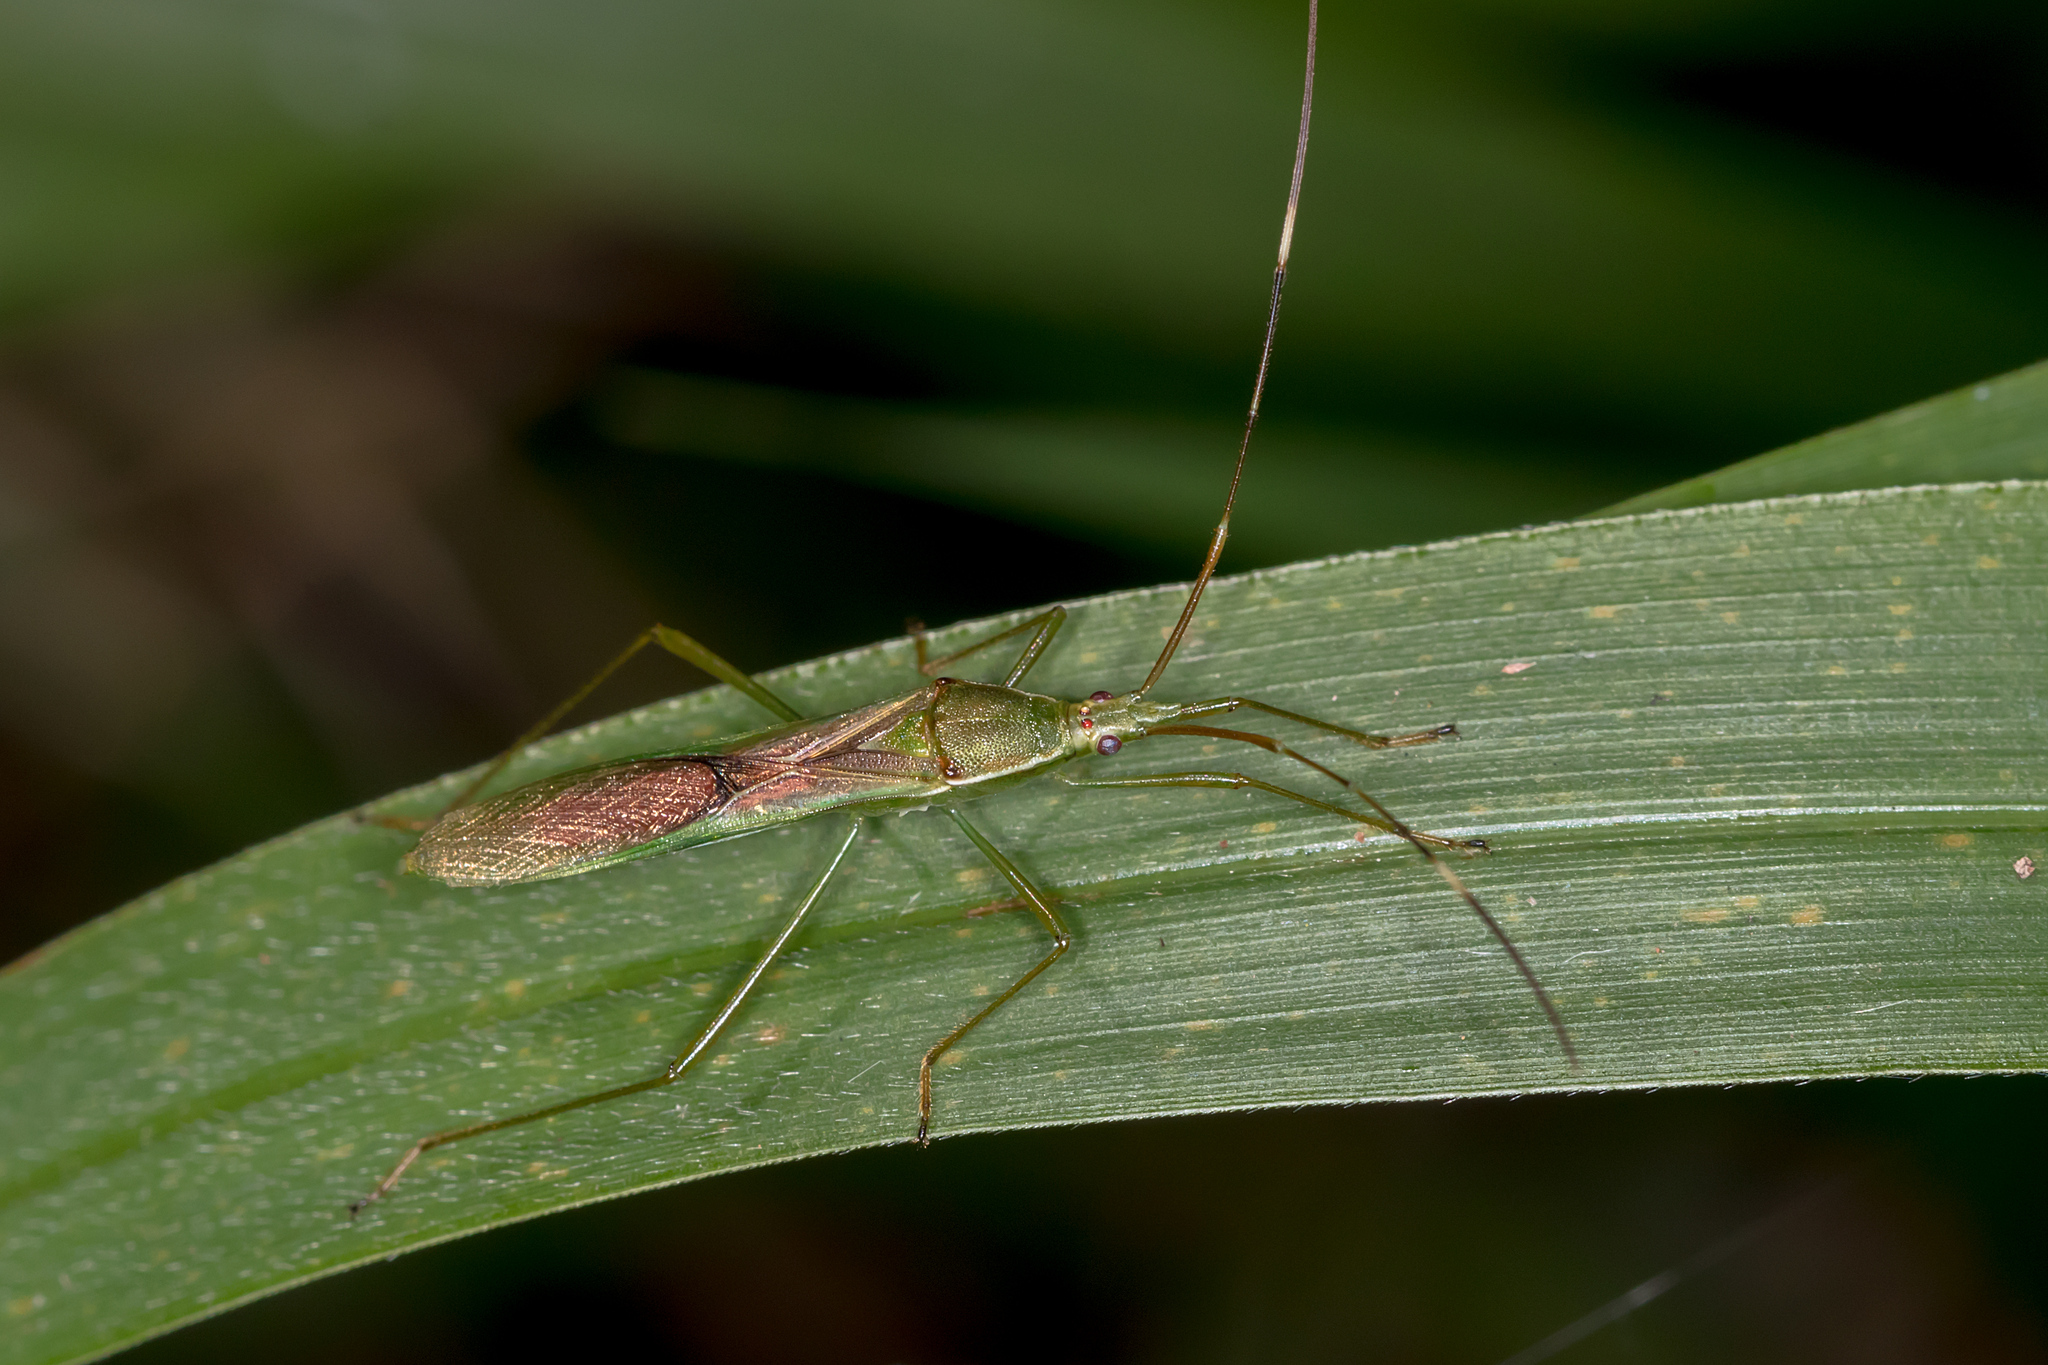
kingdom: Animalia
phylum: Arthropoda
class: Insecta
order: Hemiptera
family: Alydidae
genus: Leptocorisa
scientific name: Leptocorisa acuta
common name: Gandhi bug
